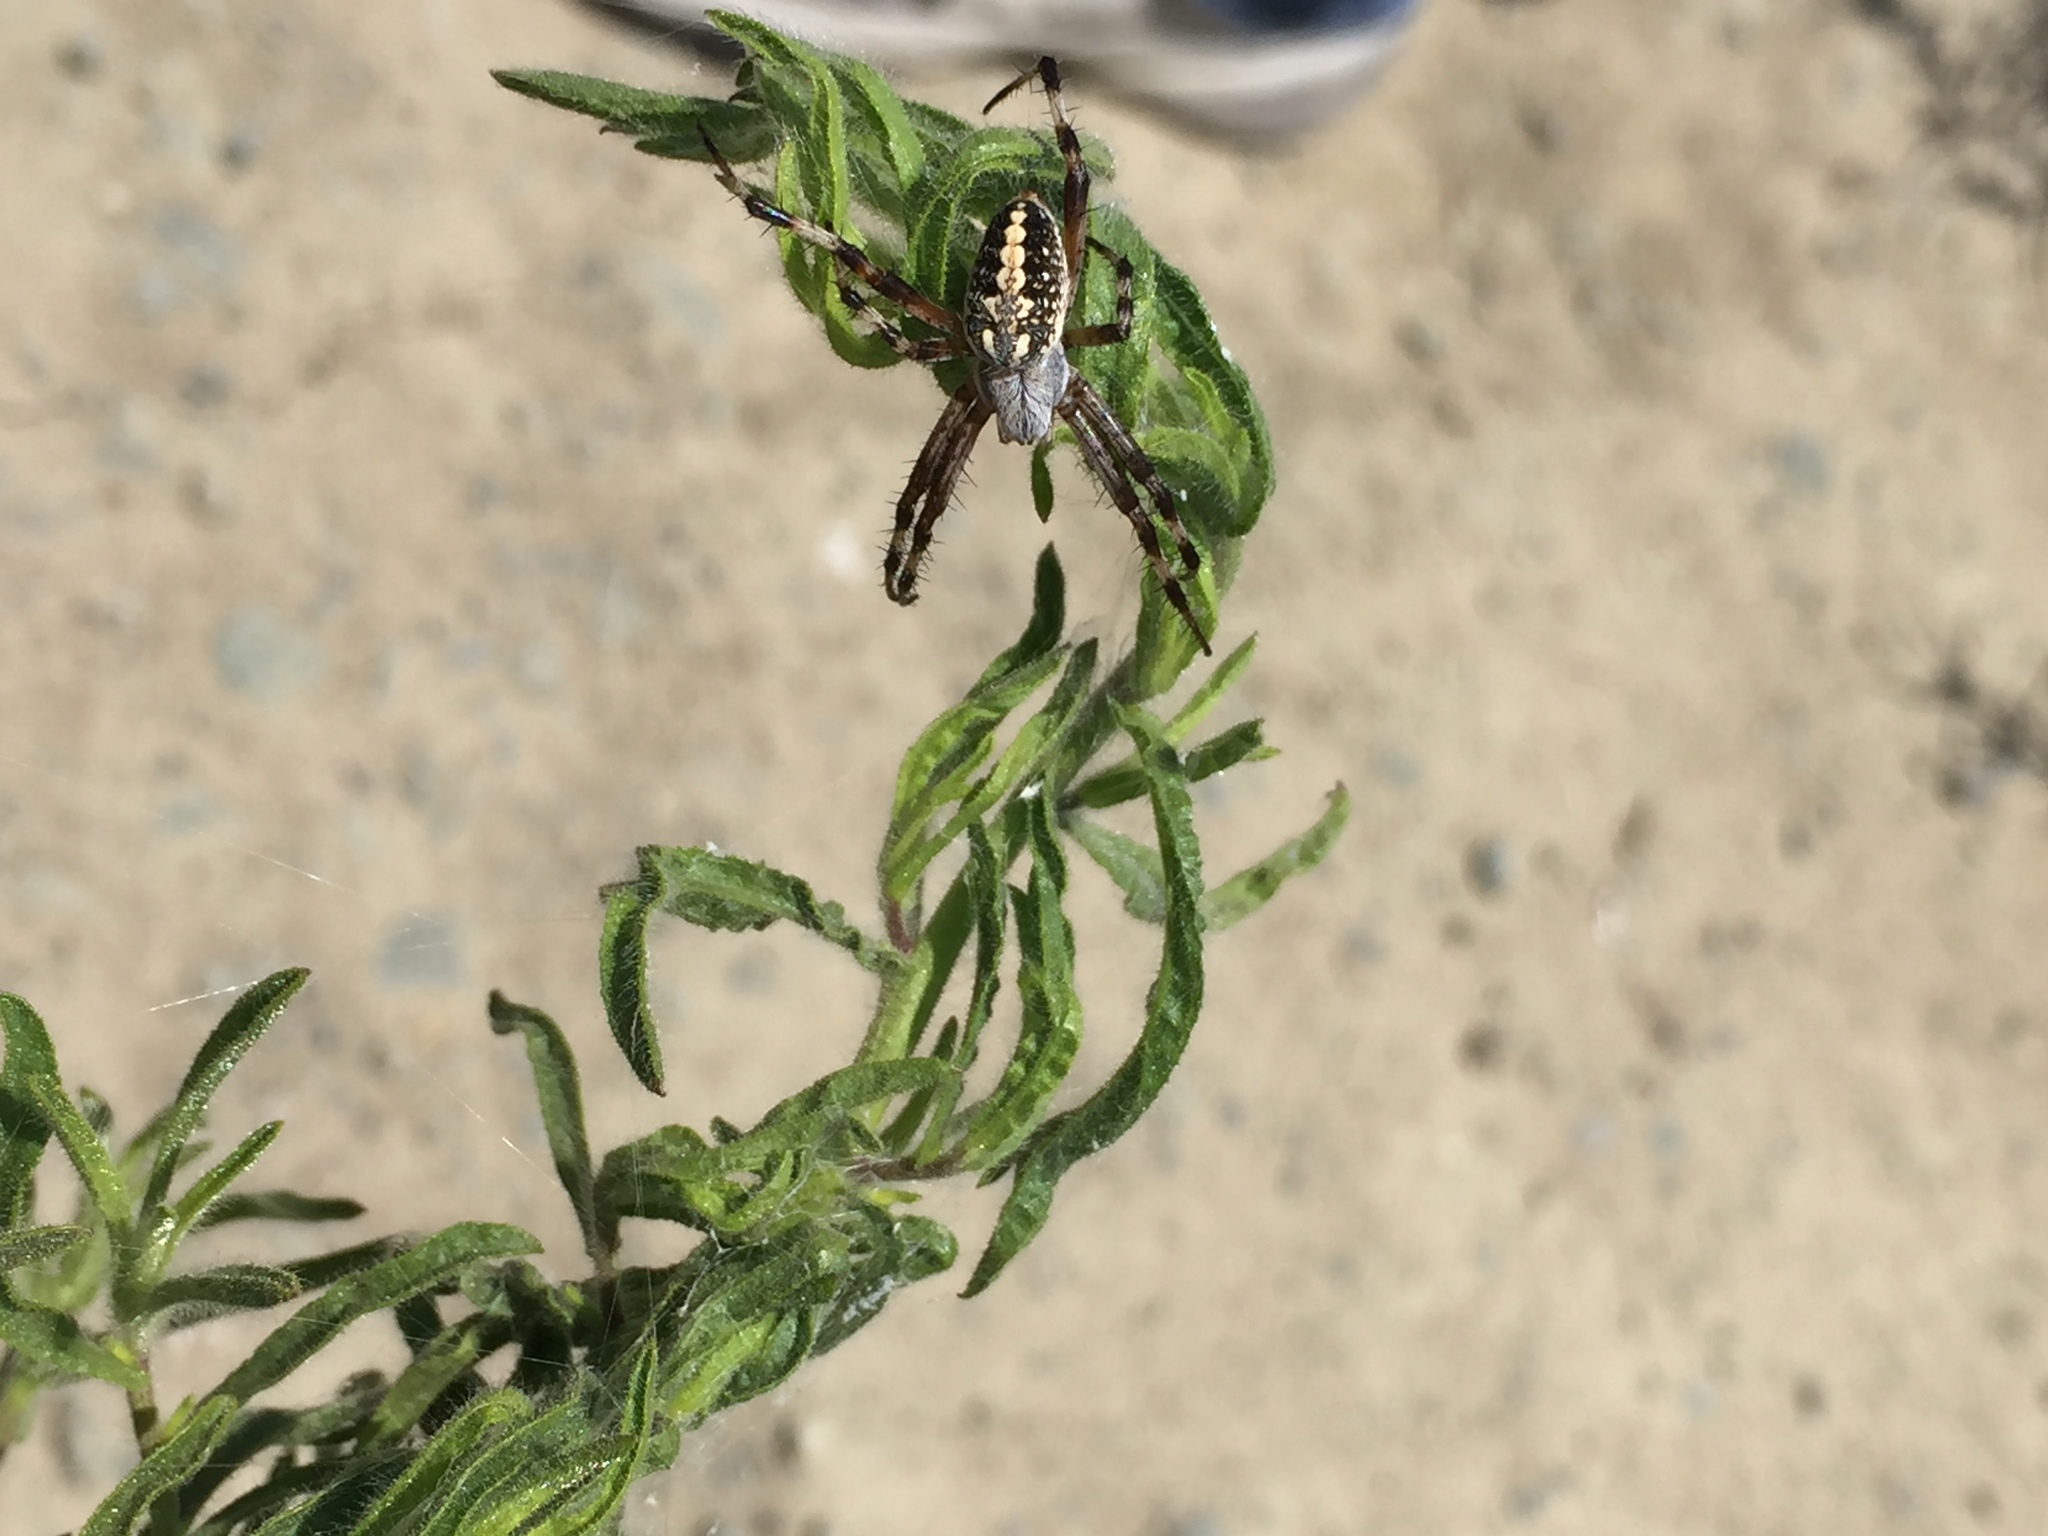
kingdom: Animalia
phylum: Arthropoda
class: Arachnida
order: Araneae
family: Araneidae
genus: Neoscona
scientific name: Neoscona oaxacensis
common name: Orb weavers
